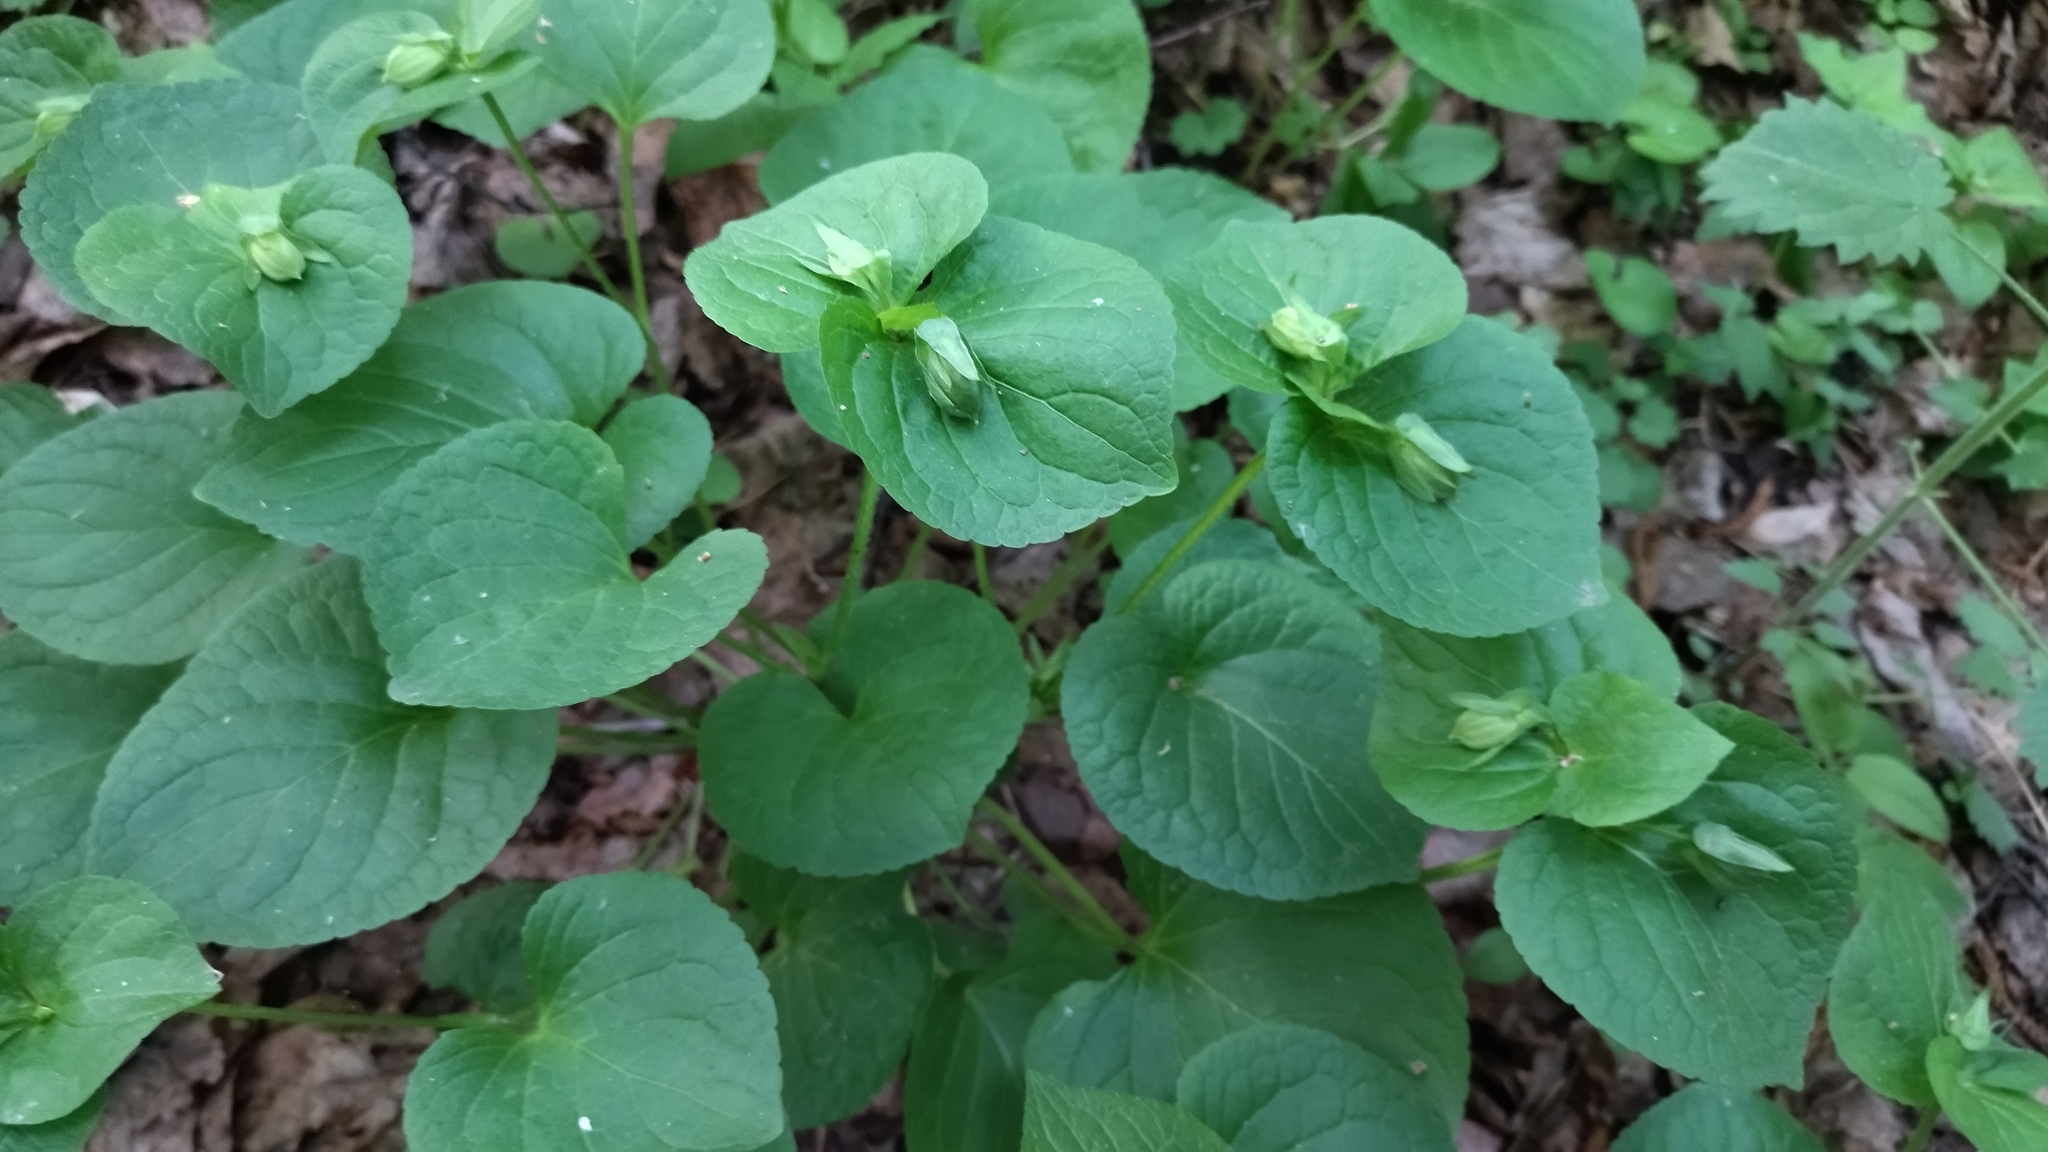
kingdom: Plantae
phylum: Tracheophyta
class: Magnoliopsida
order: Malpighiales
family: Violaceae
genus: Viola
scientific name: Viola mirabilis
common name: Wonder violet
